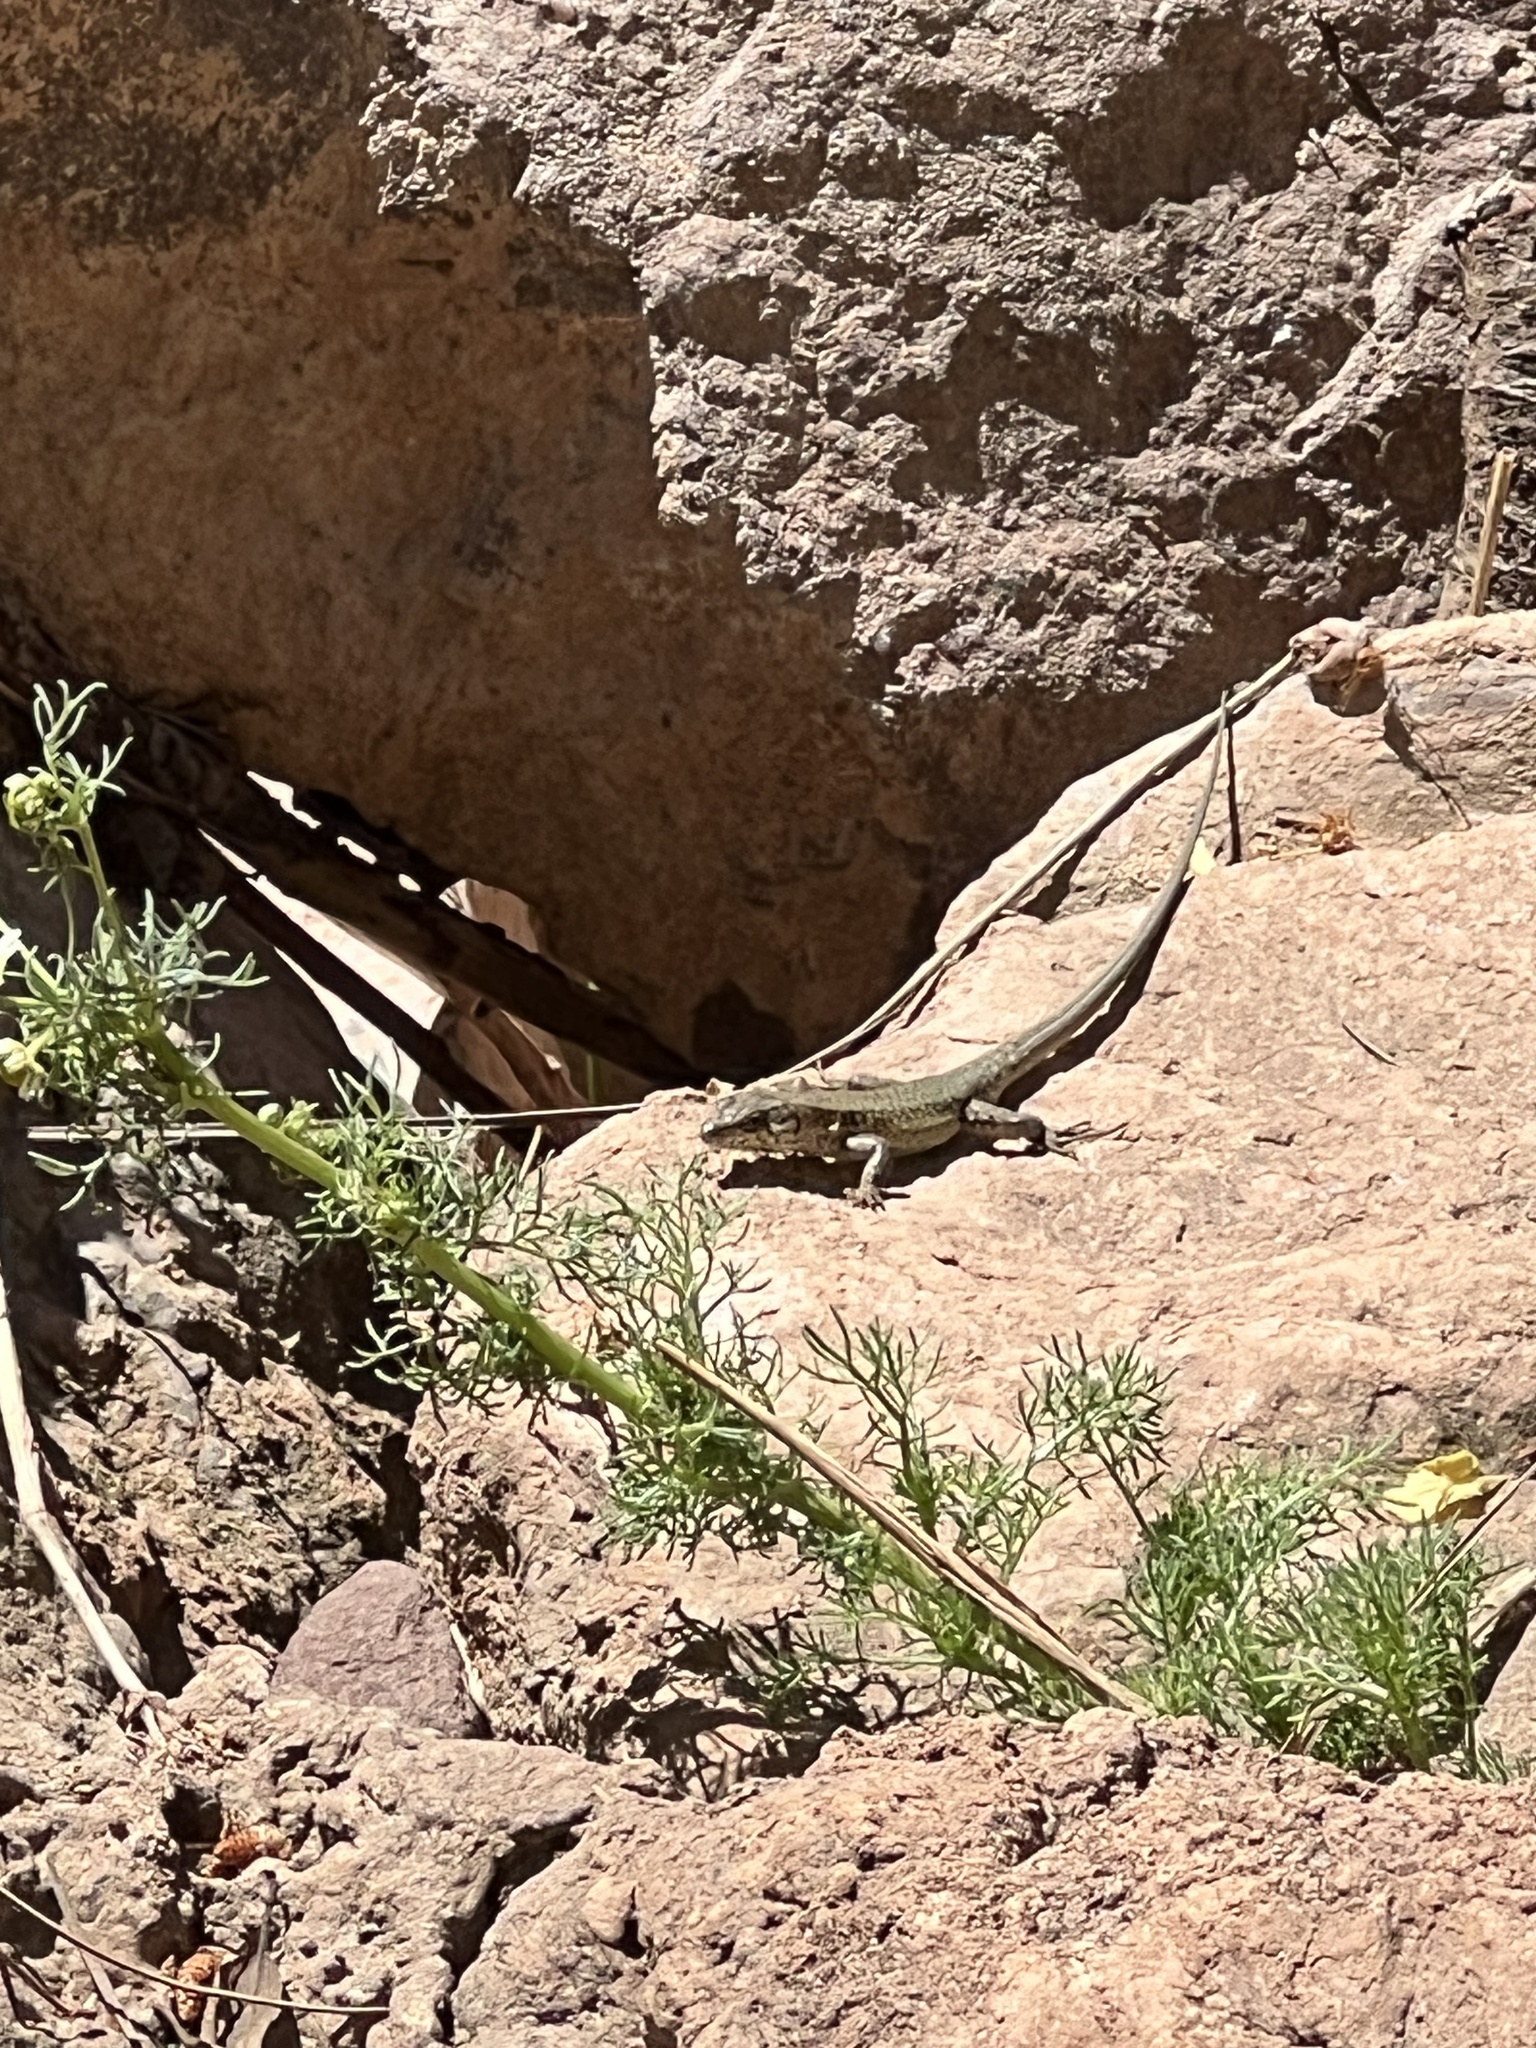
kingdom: Animalia
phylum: Chordata
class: Squamata
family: Lacertidae
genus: Podarcis
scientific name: Podarcis liolepis
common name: Catalonian wall lizard
